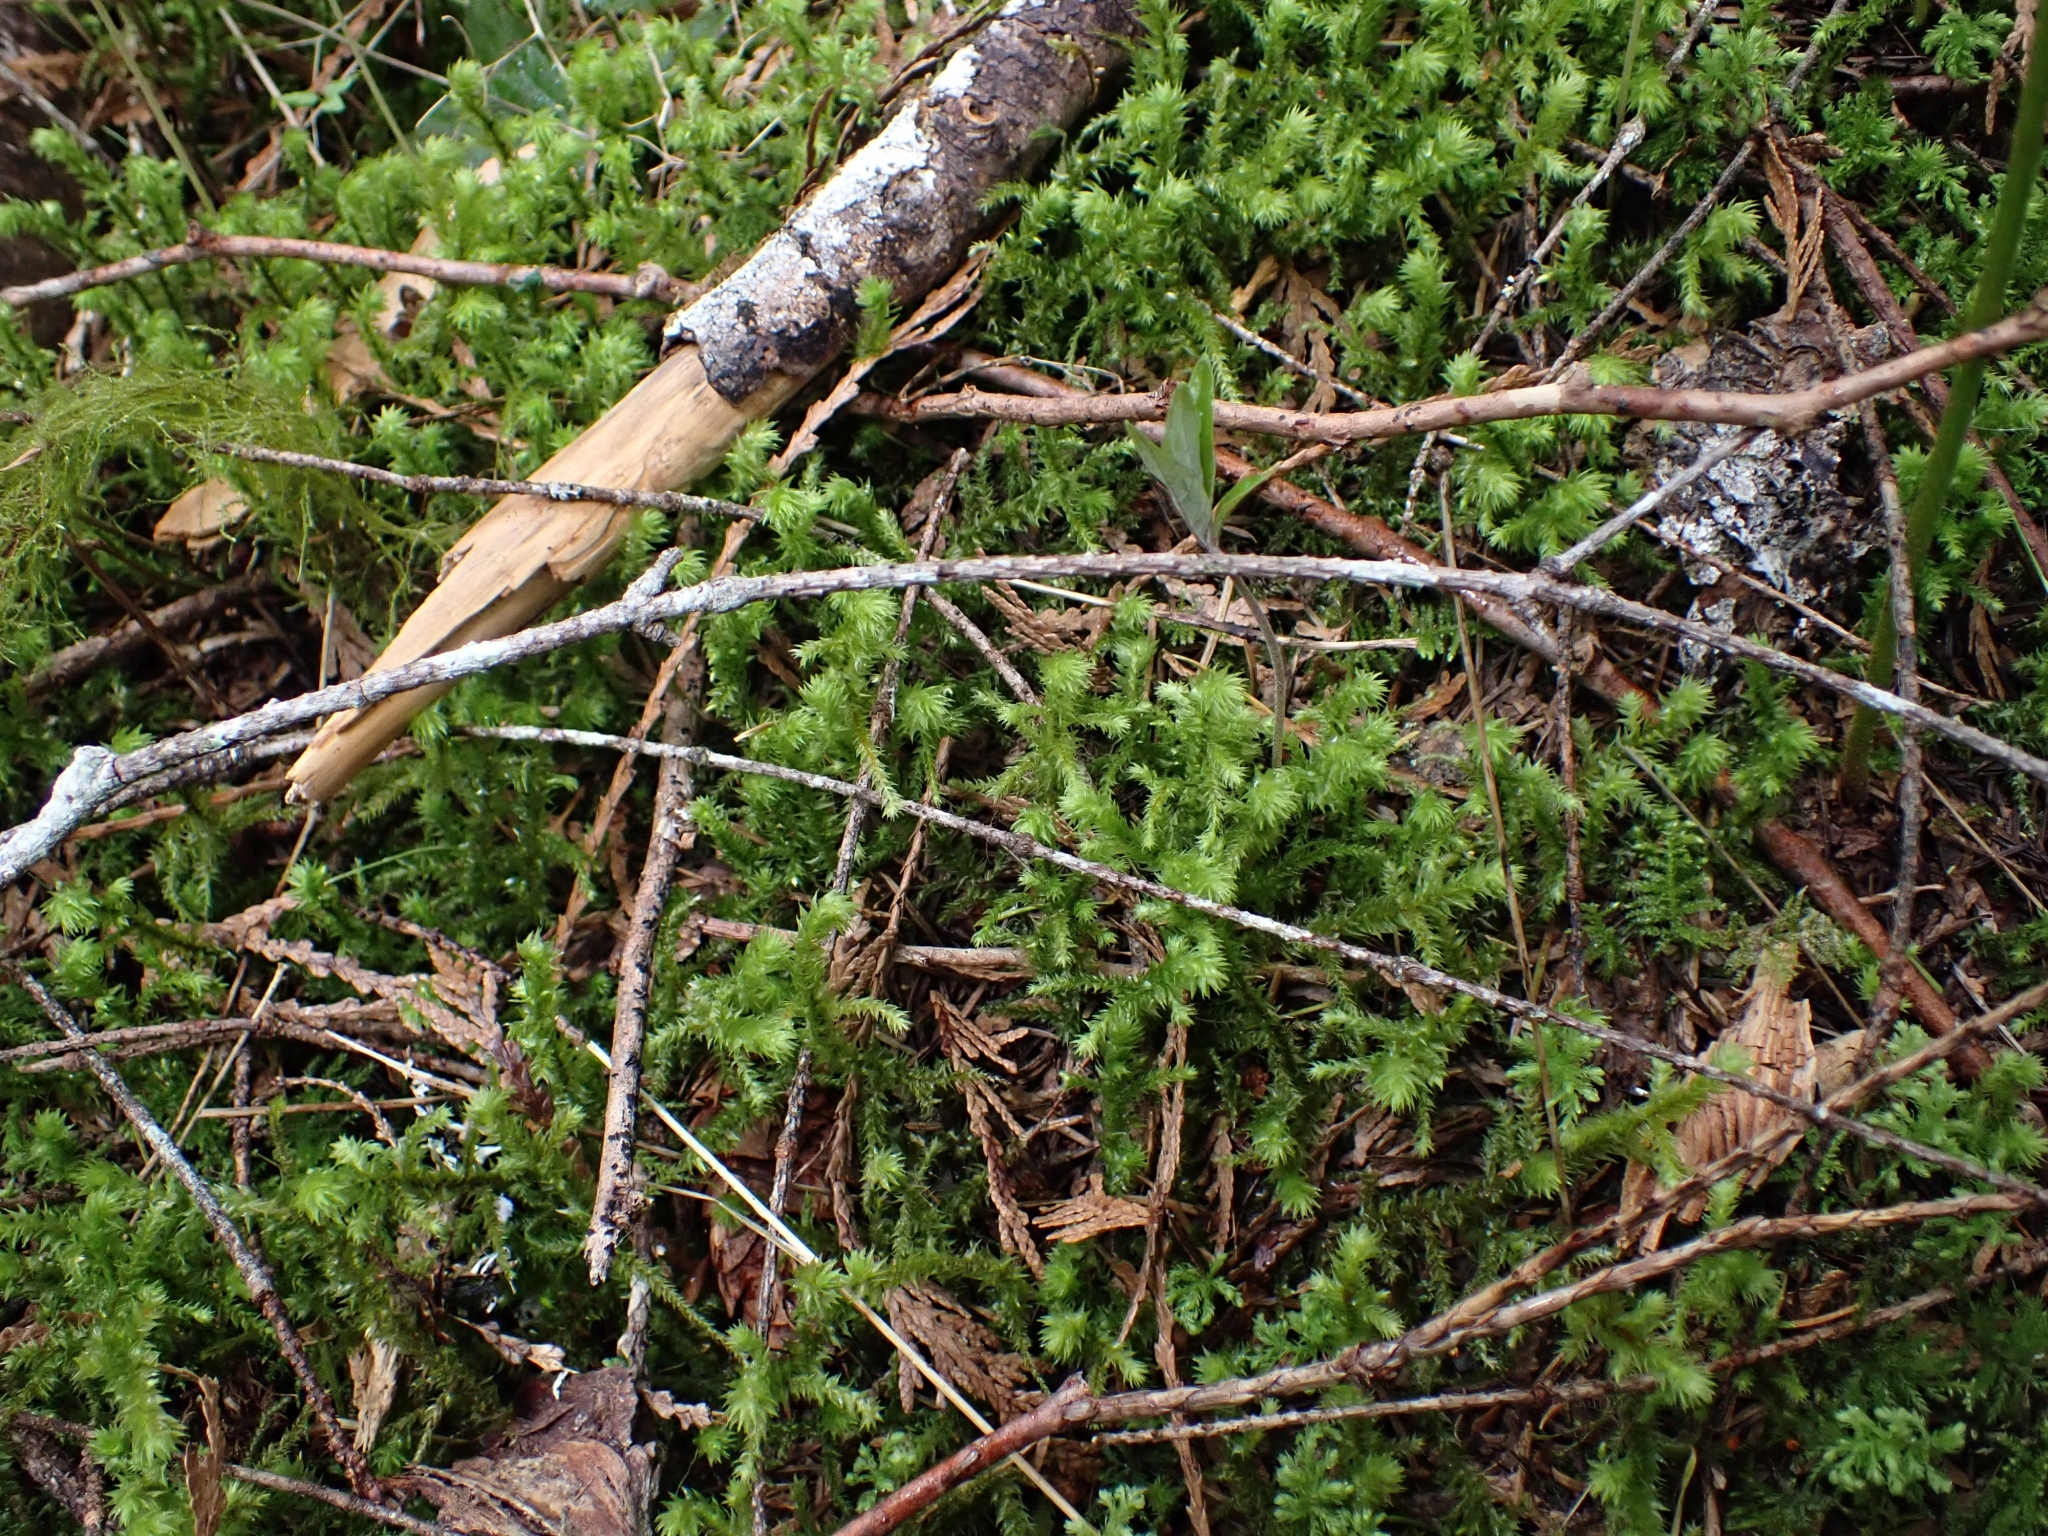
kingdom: Plantae
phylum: Bryophyta
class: Bryopsida
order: Hypnales
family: Hylocomiaceae
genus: Hylocomiadelphus
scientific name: Hylocomiadelphus triquetrus
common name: Rough goose neck moss
